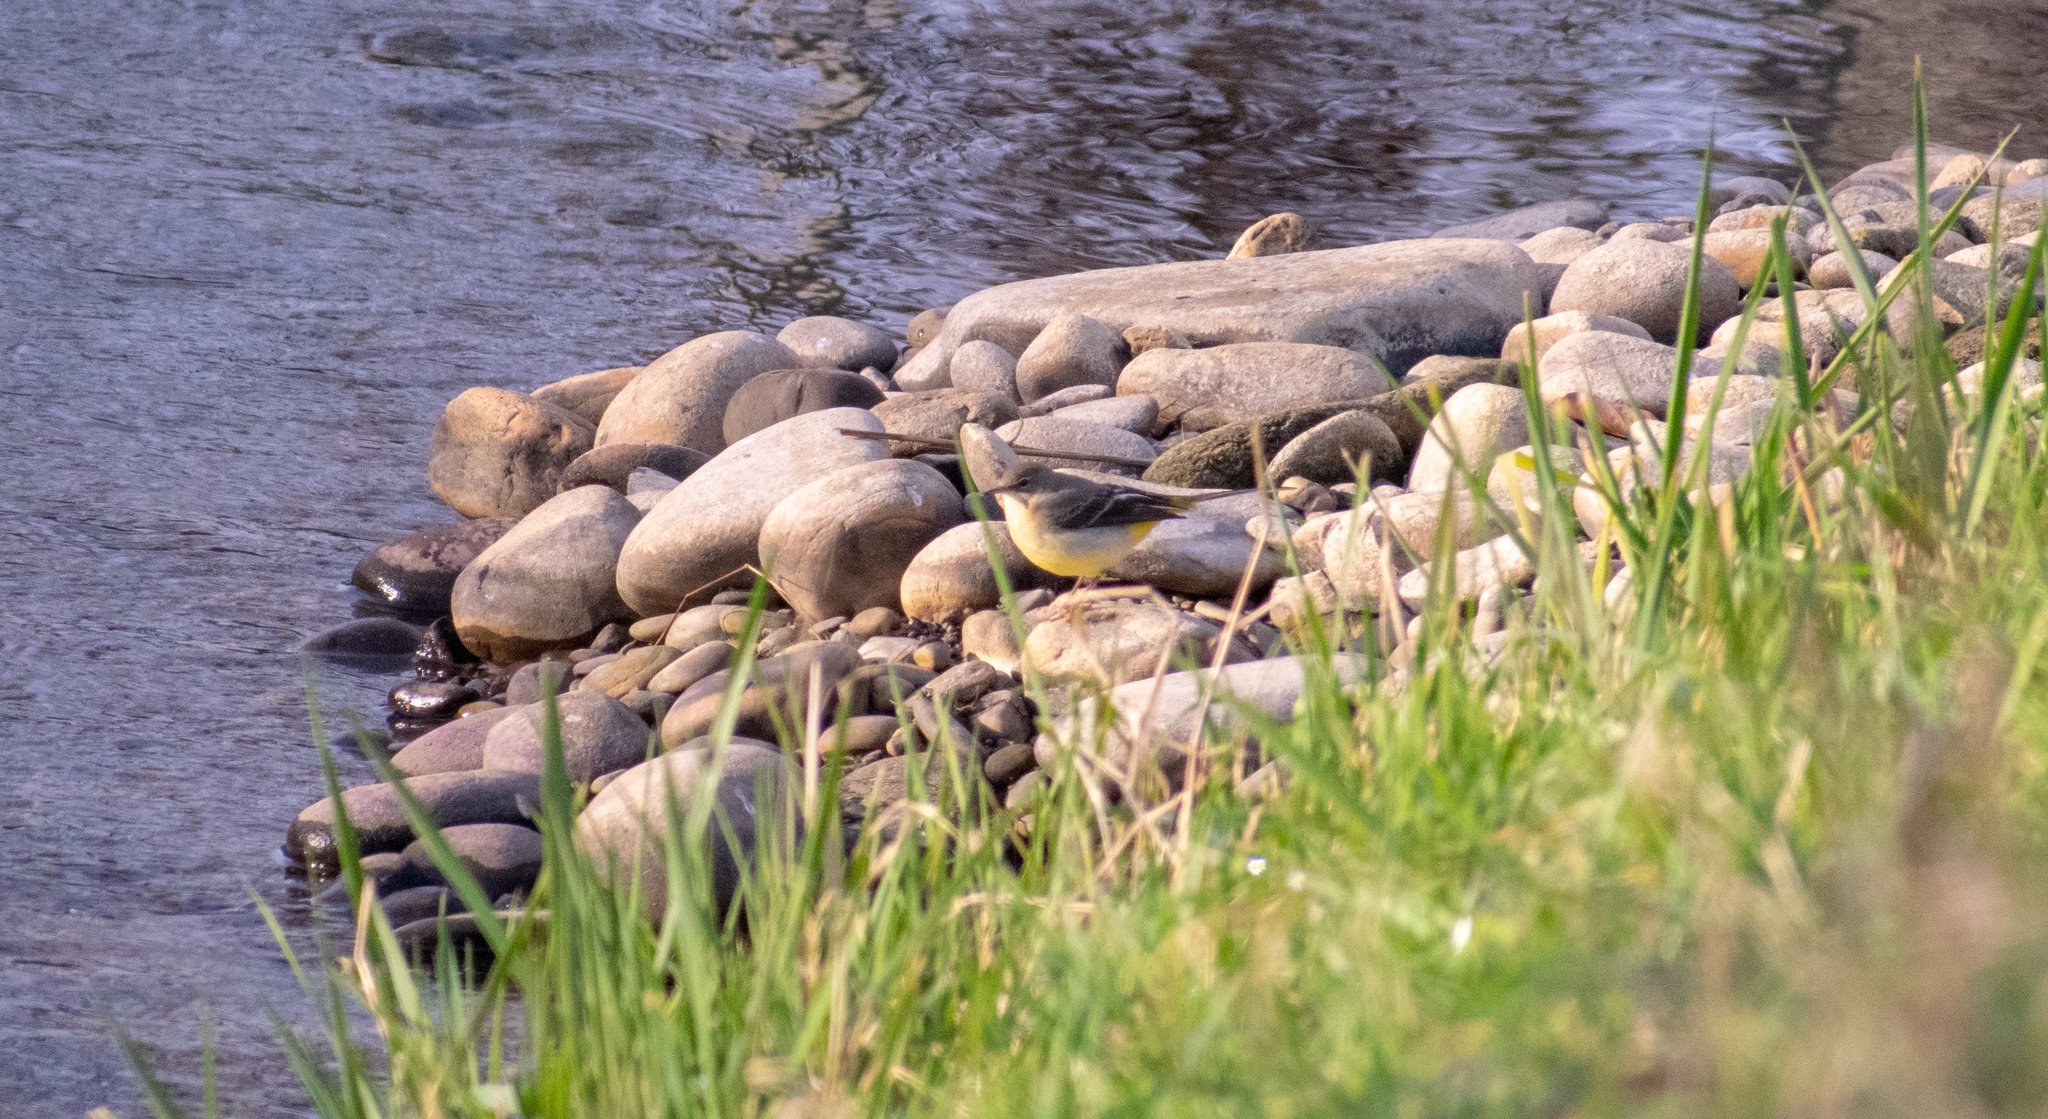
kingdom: Animalia
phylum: Chordata
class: Aves
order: Passeriformes
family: Motacillidae
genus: Motacilla
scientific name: Motacilla cinerea
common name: Grey wagtail
